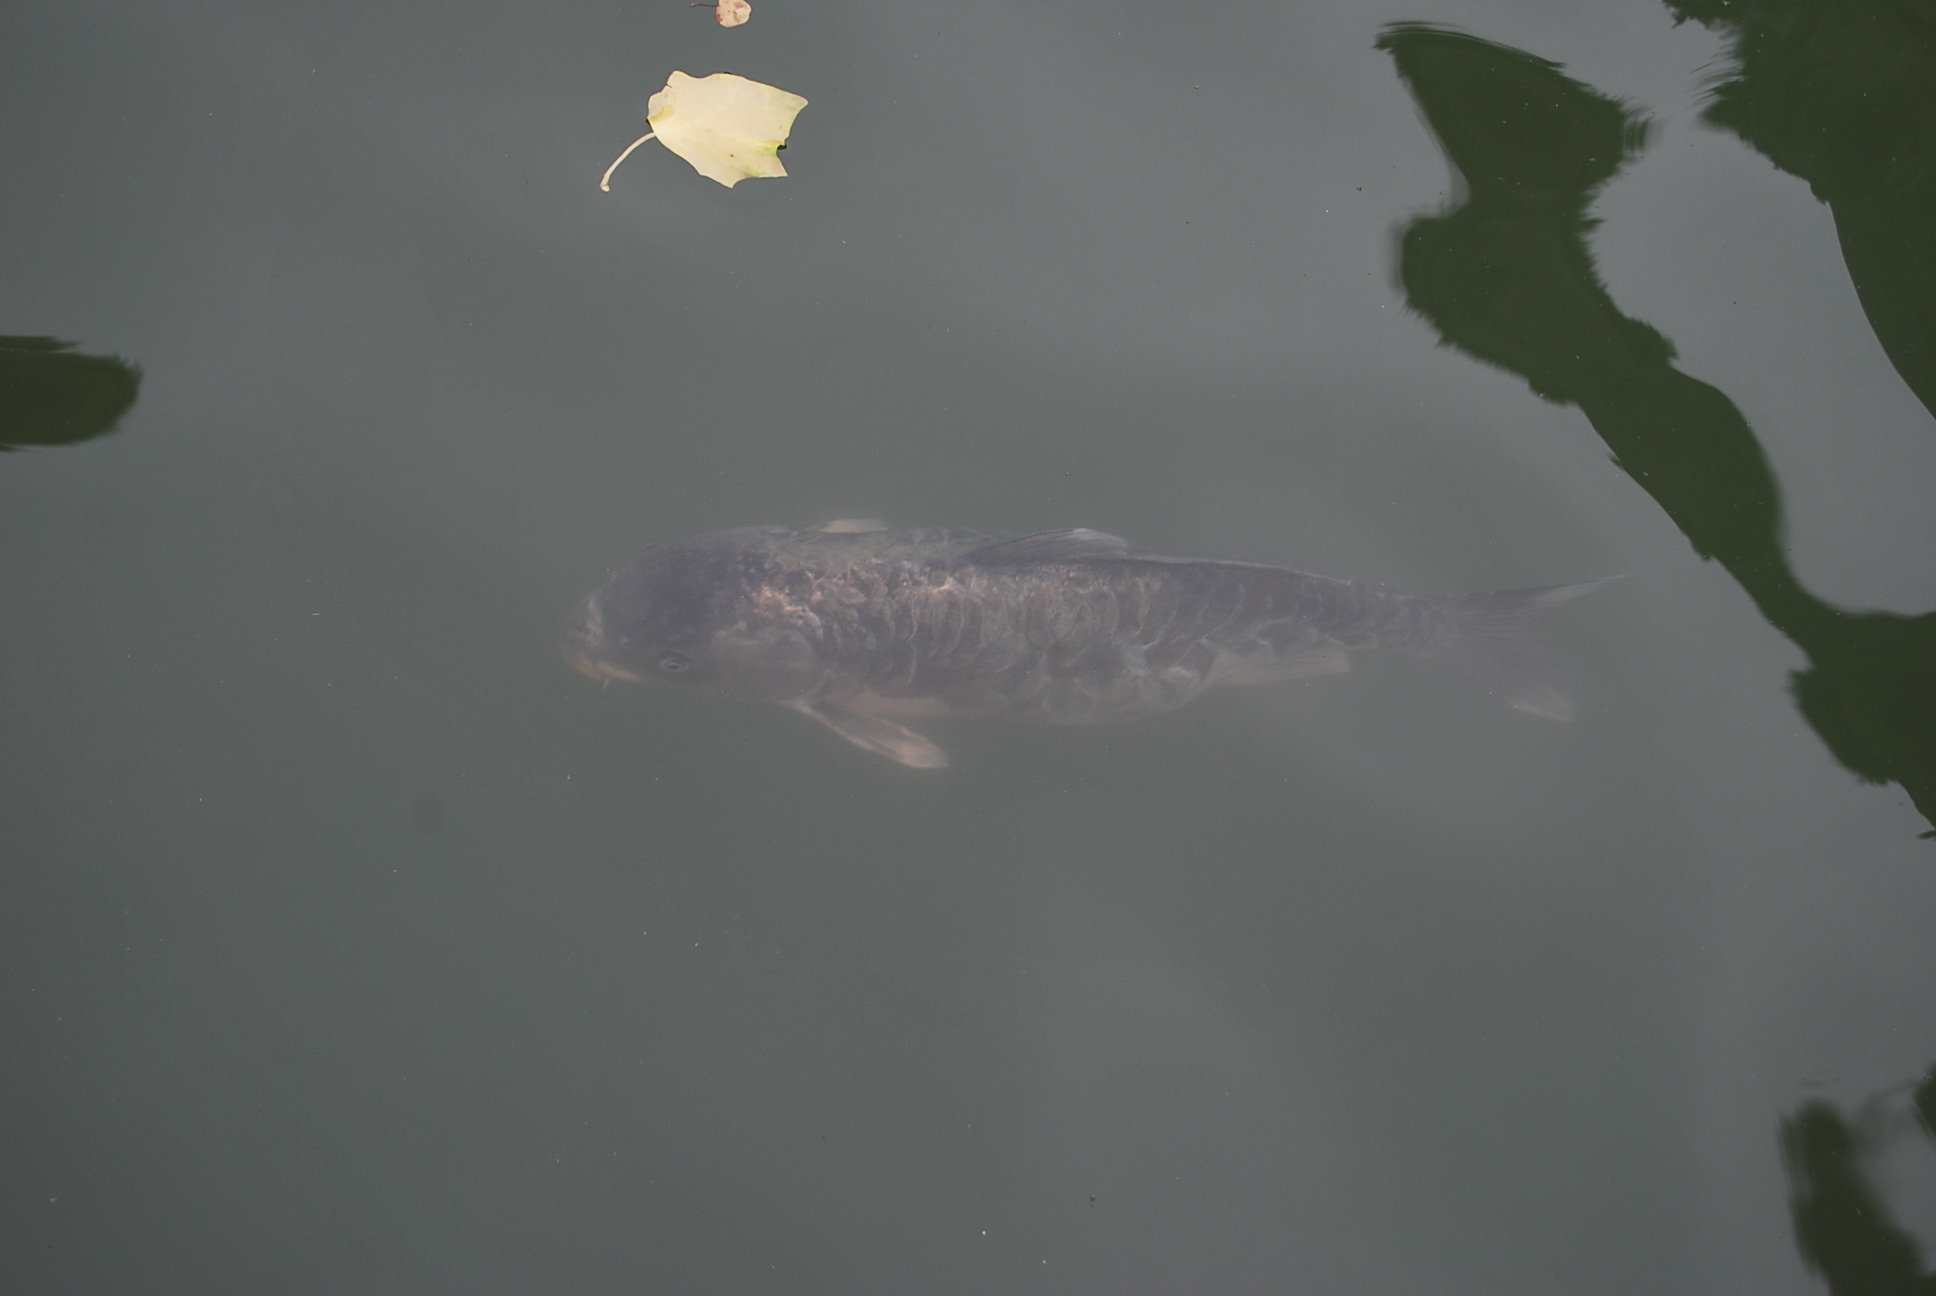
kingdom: Animalia
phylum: Chordata
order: Cypriniformes
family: Cyprinidae
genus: Cyprinus
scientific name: Cyprinus carpio
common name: Common carp
